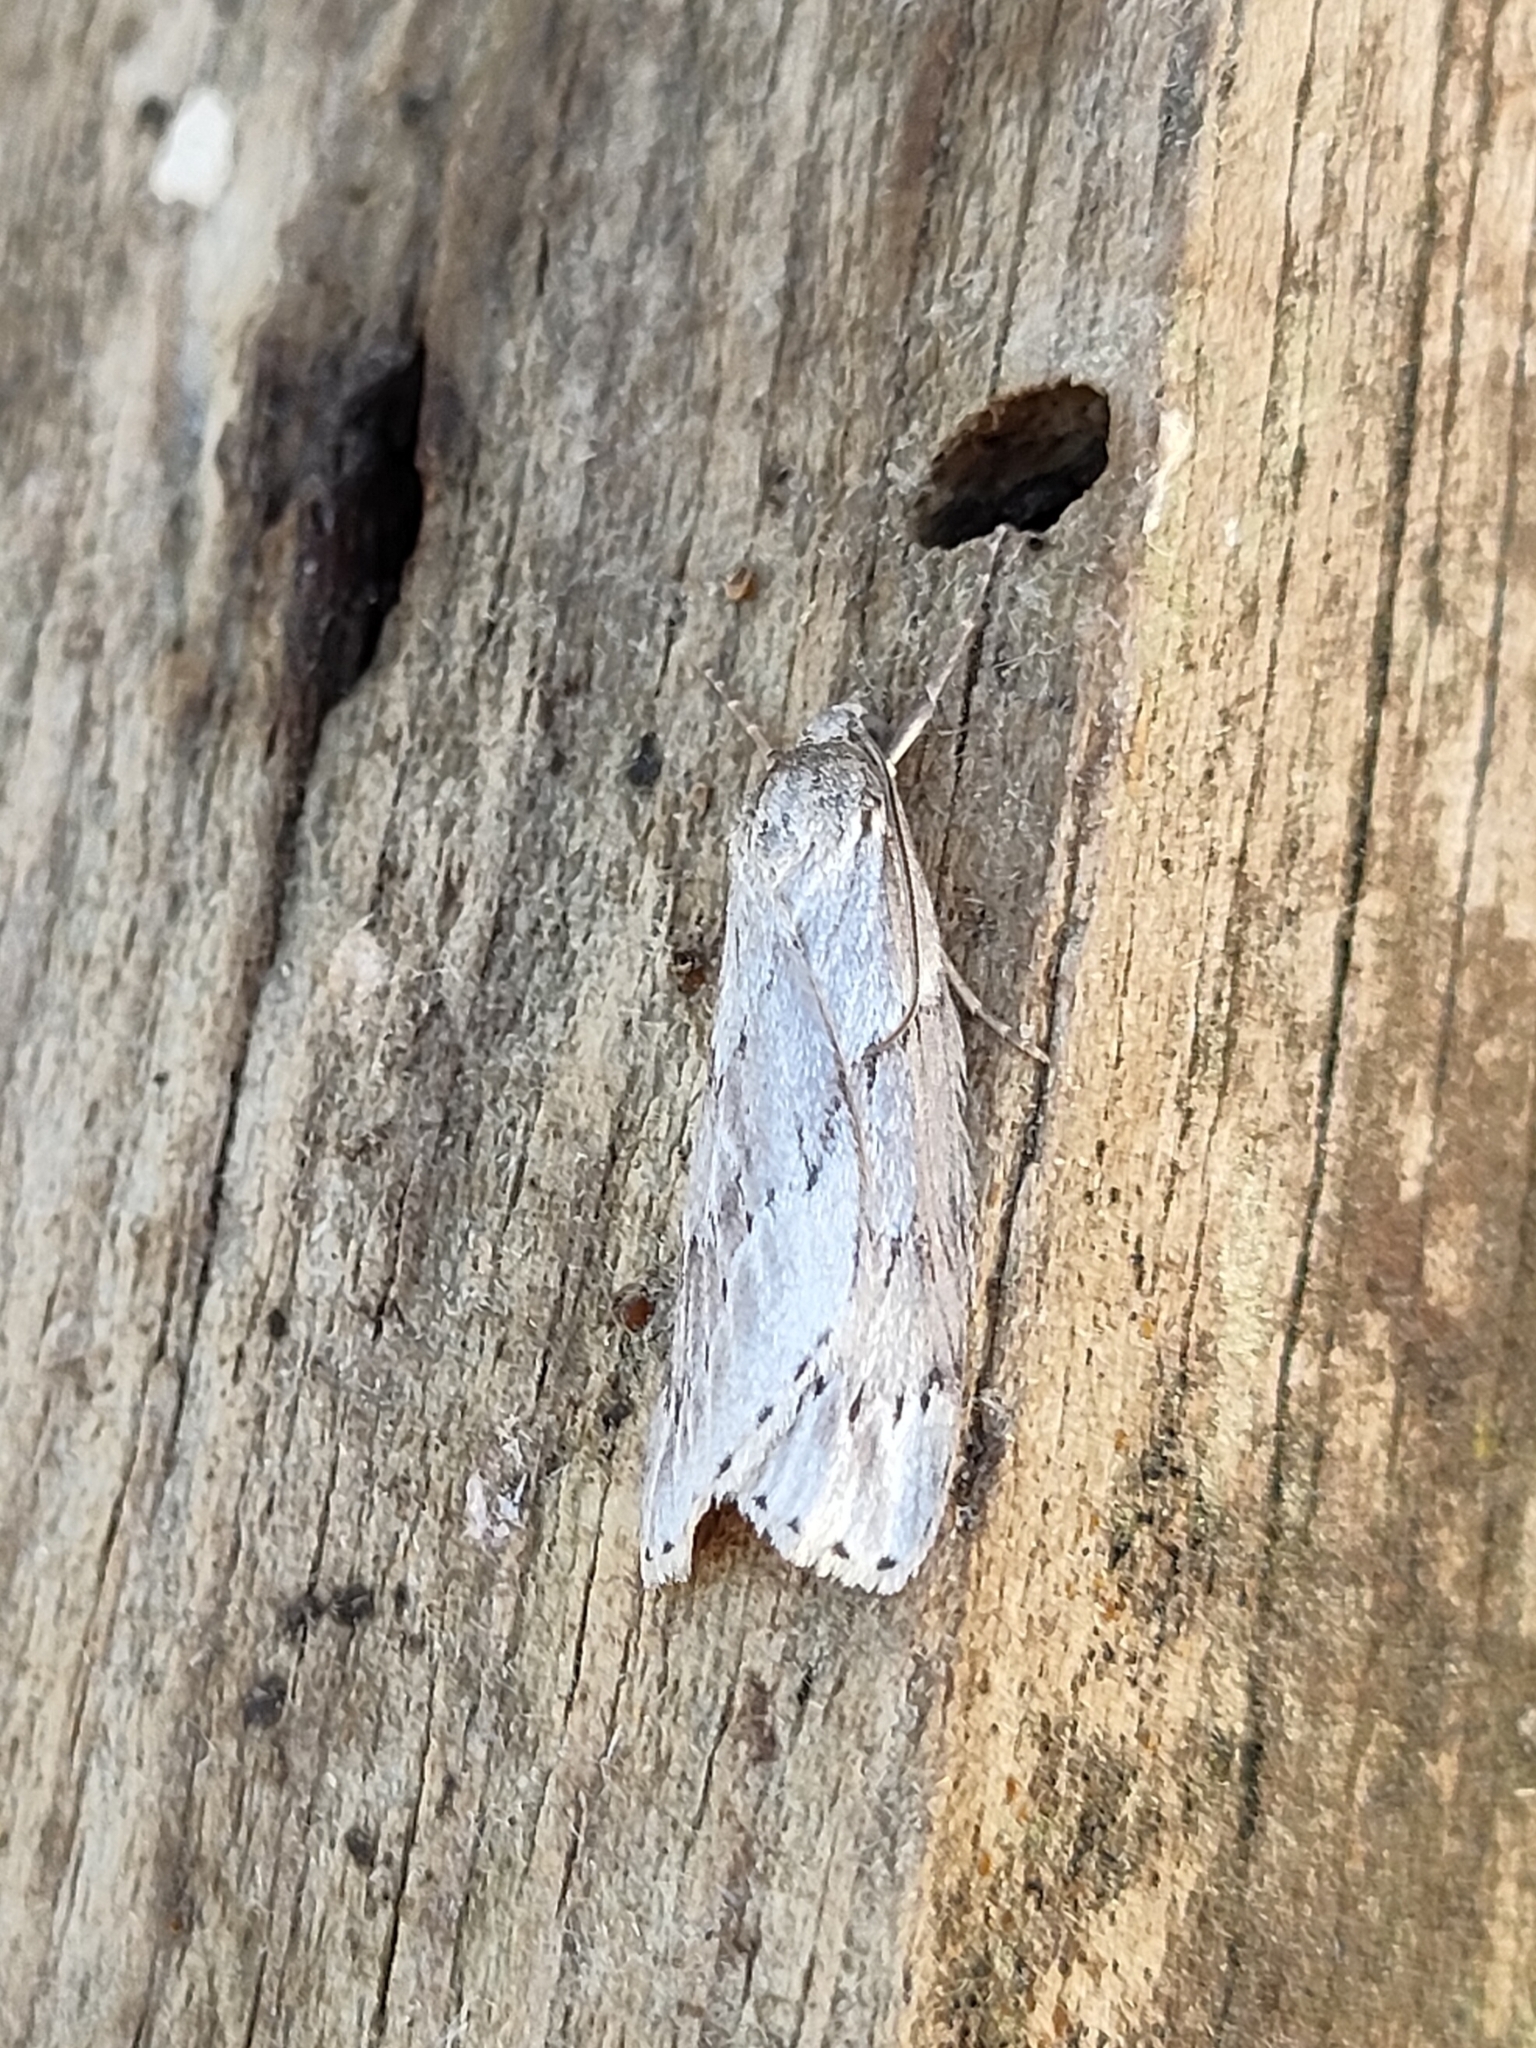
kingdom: Animalia
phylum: Arthropoda
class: Insecta
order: Lepidoptera
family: Geometridae
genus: Pachycnemia
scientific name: Pachycnemia hippocastanaria
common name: Horse chestnut
